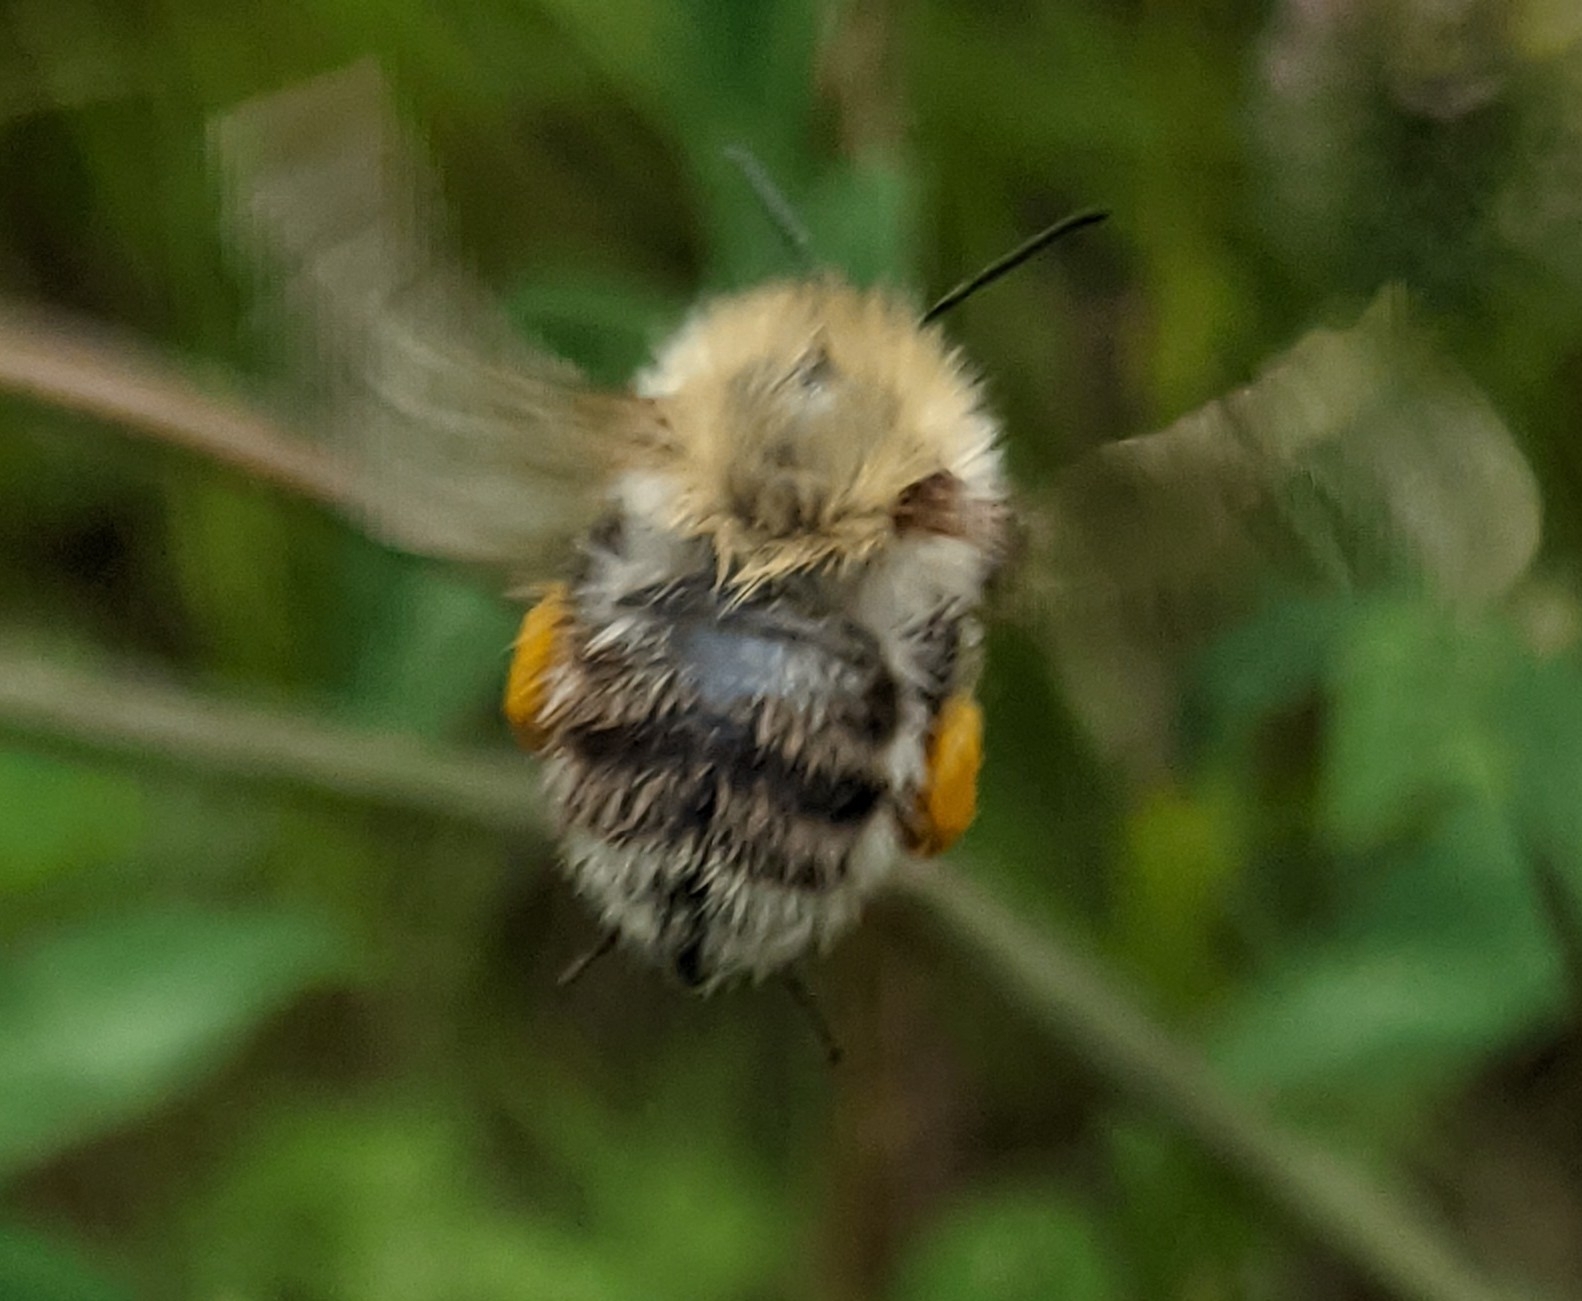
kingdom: Animalia
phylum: Arthropoda
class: Insecta
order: Hymenoptera
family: Apidae
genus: Bombus
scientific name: Bombus pascuorum
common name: Common carder bee
